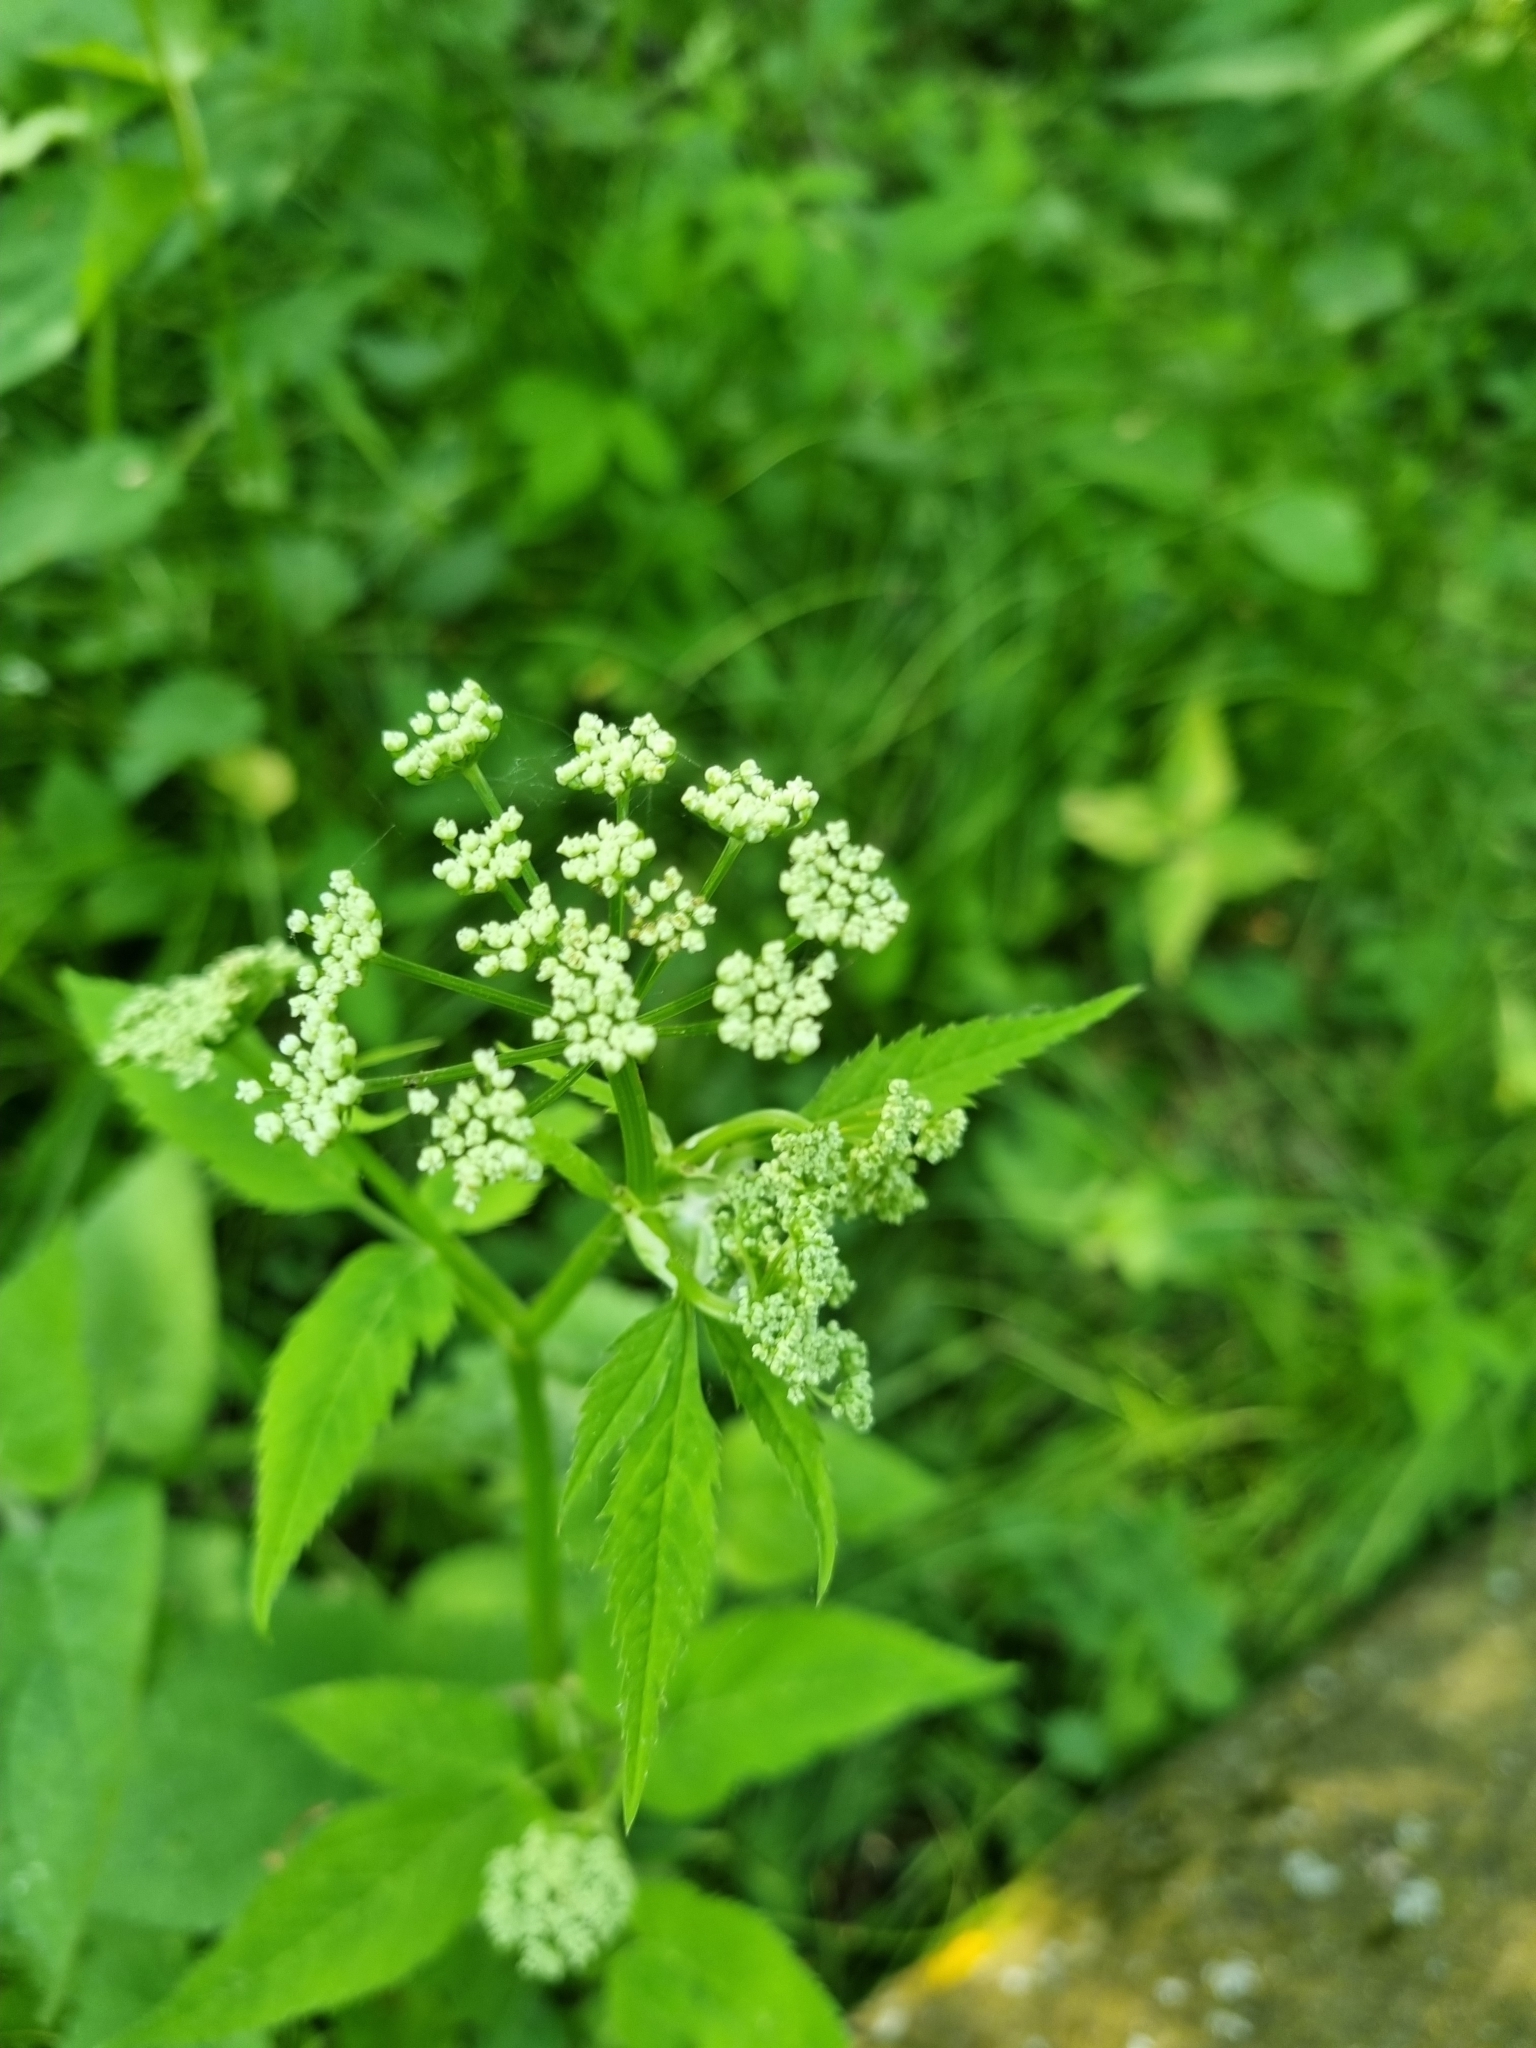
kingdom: Plantae
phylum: Tracheophyta
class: Magnoliopsida
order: Apiales
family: Apiaceae
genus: Aegopodium
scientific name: Aegopodium podagraria
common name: Ground-elder
